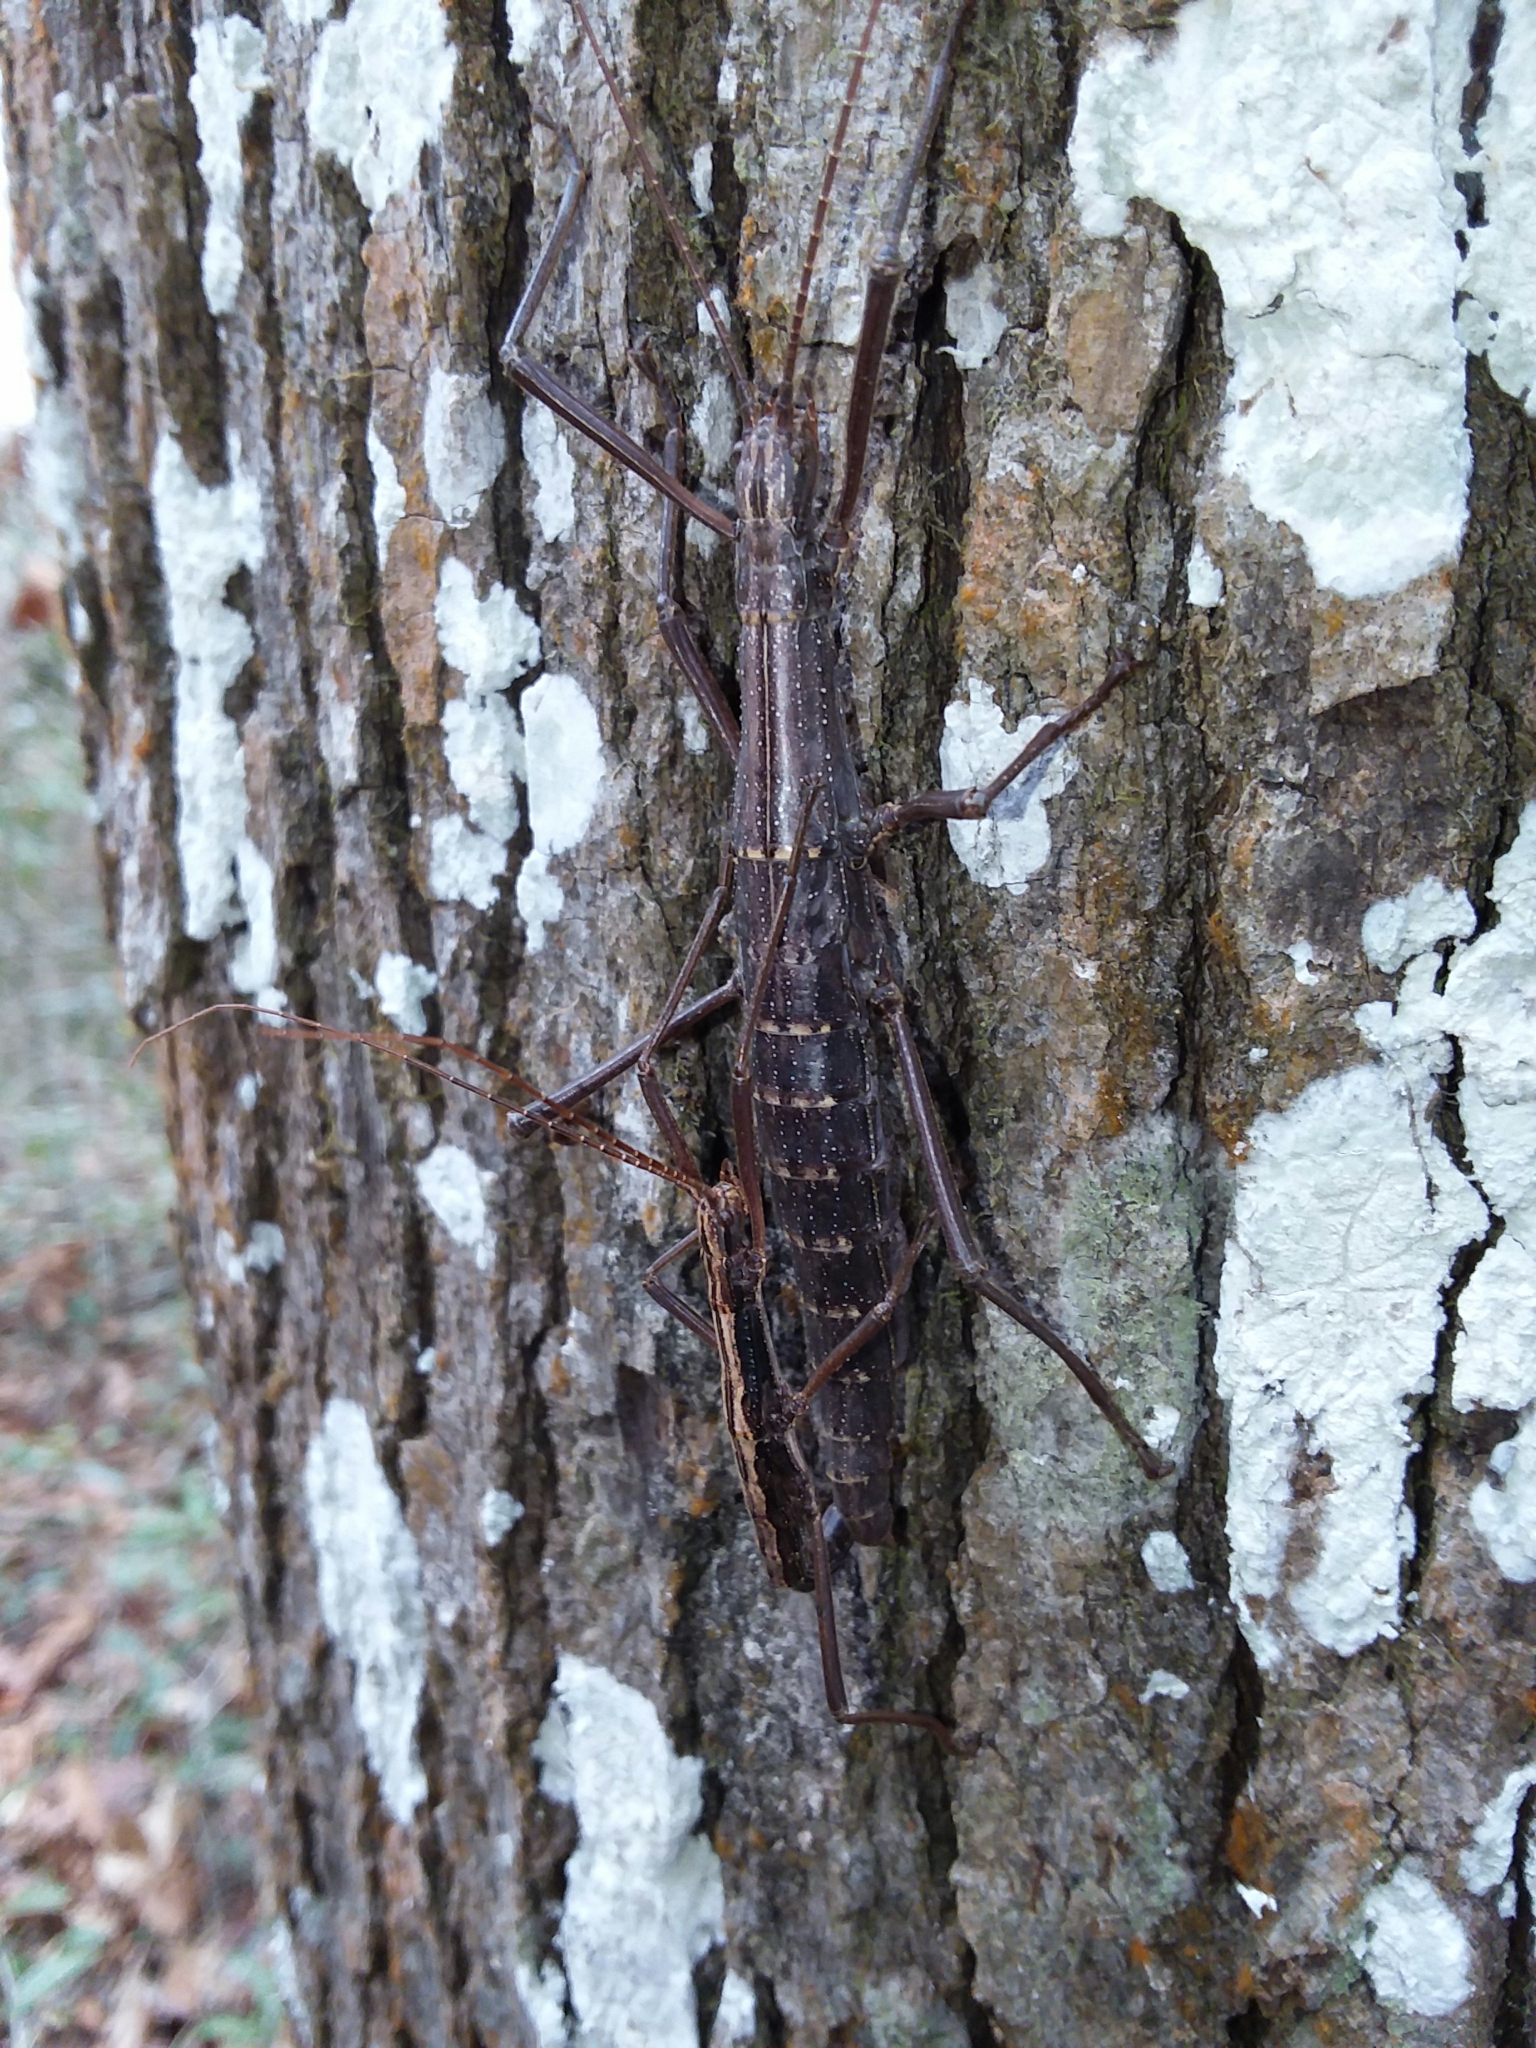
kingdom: Animalia
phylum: Arthropoda
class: Insecta
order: Phasmida
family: Pseudophasmatidae
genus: Anisomorpha
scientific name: Anisomorpha buprestoides
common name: Florida stick insect
